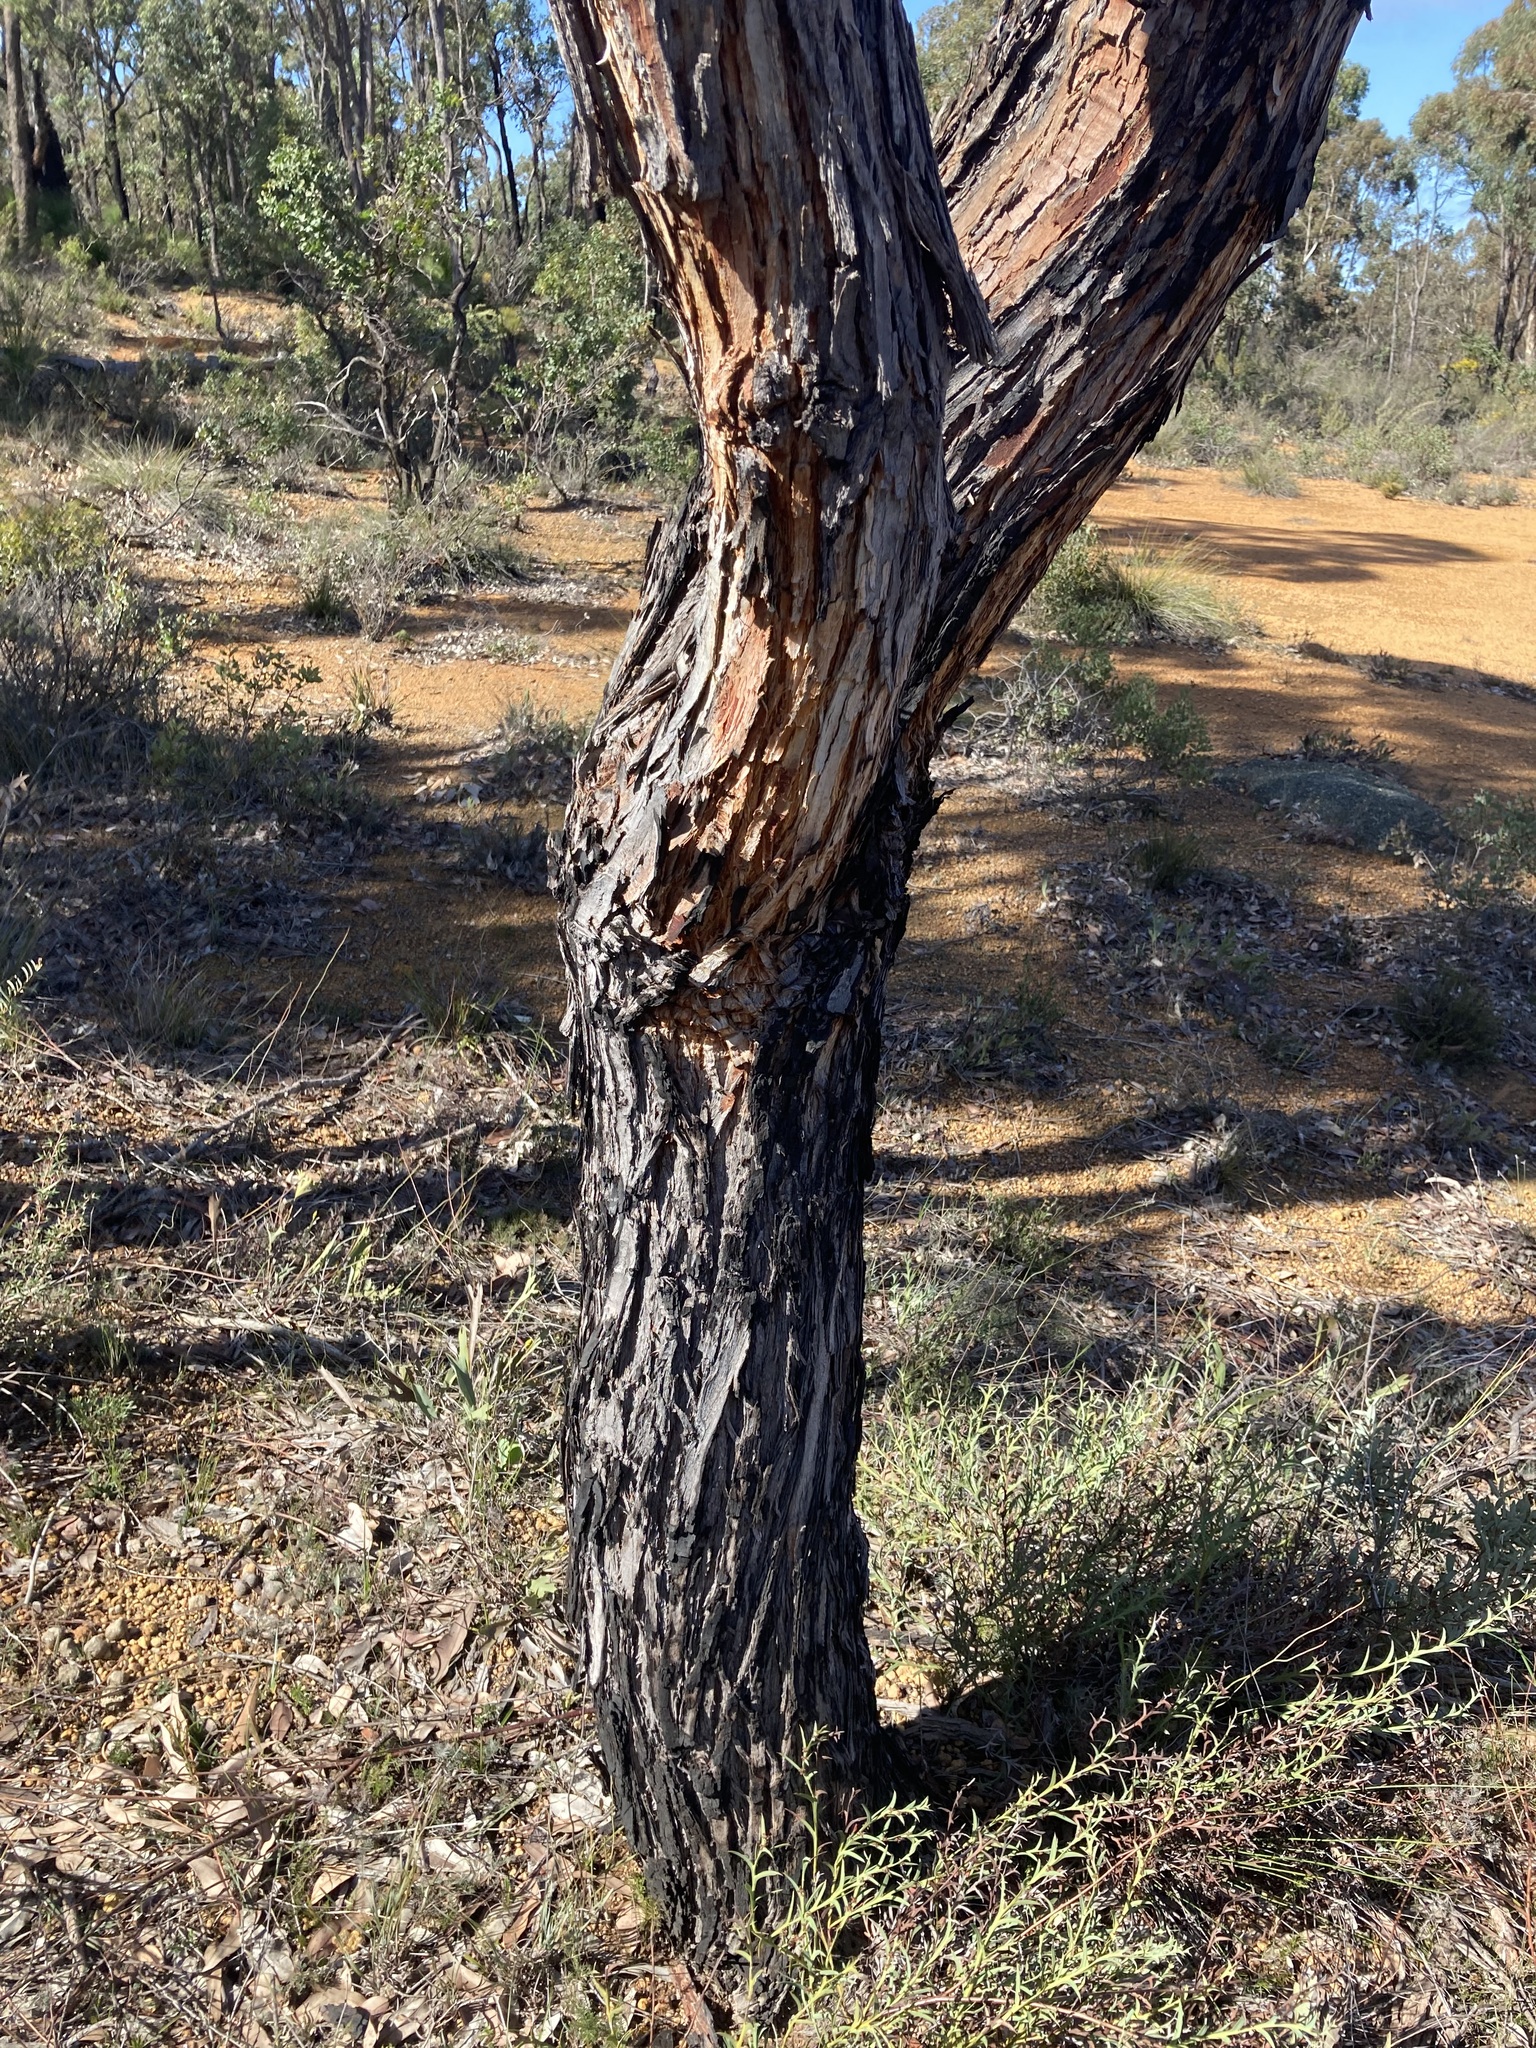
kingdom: Plantae
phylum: Tracheophyta
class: Magnoliopsida
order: Myrtales
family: Myrtaceae
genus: Eucalyptus
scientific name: Eucalyptus marginata
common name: Jarrah
